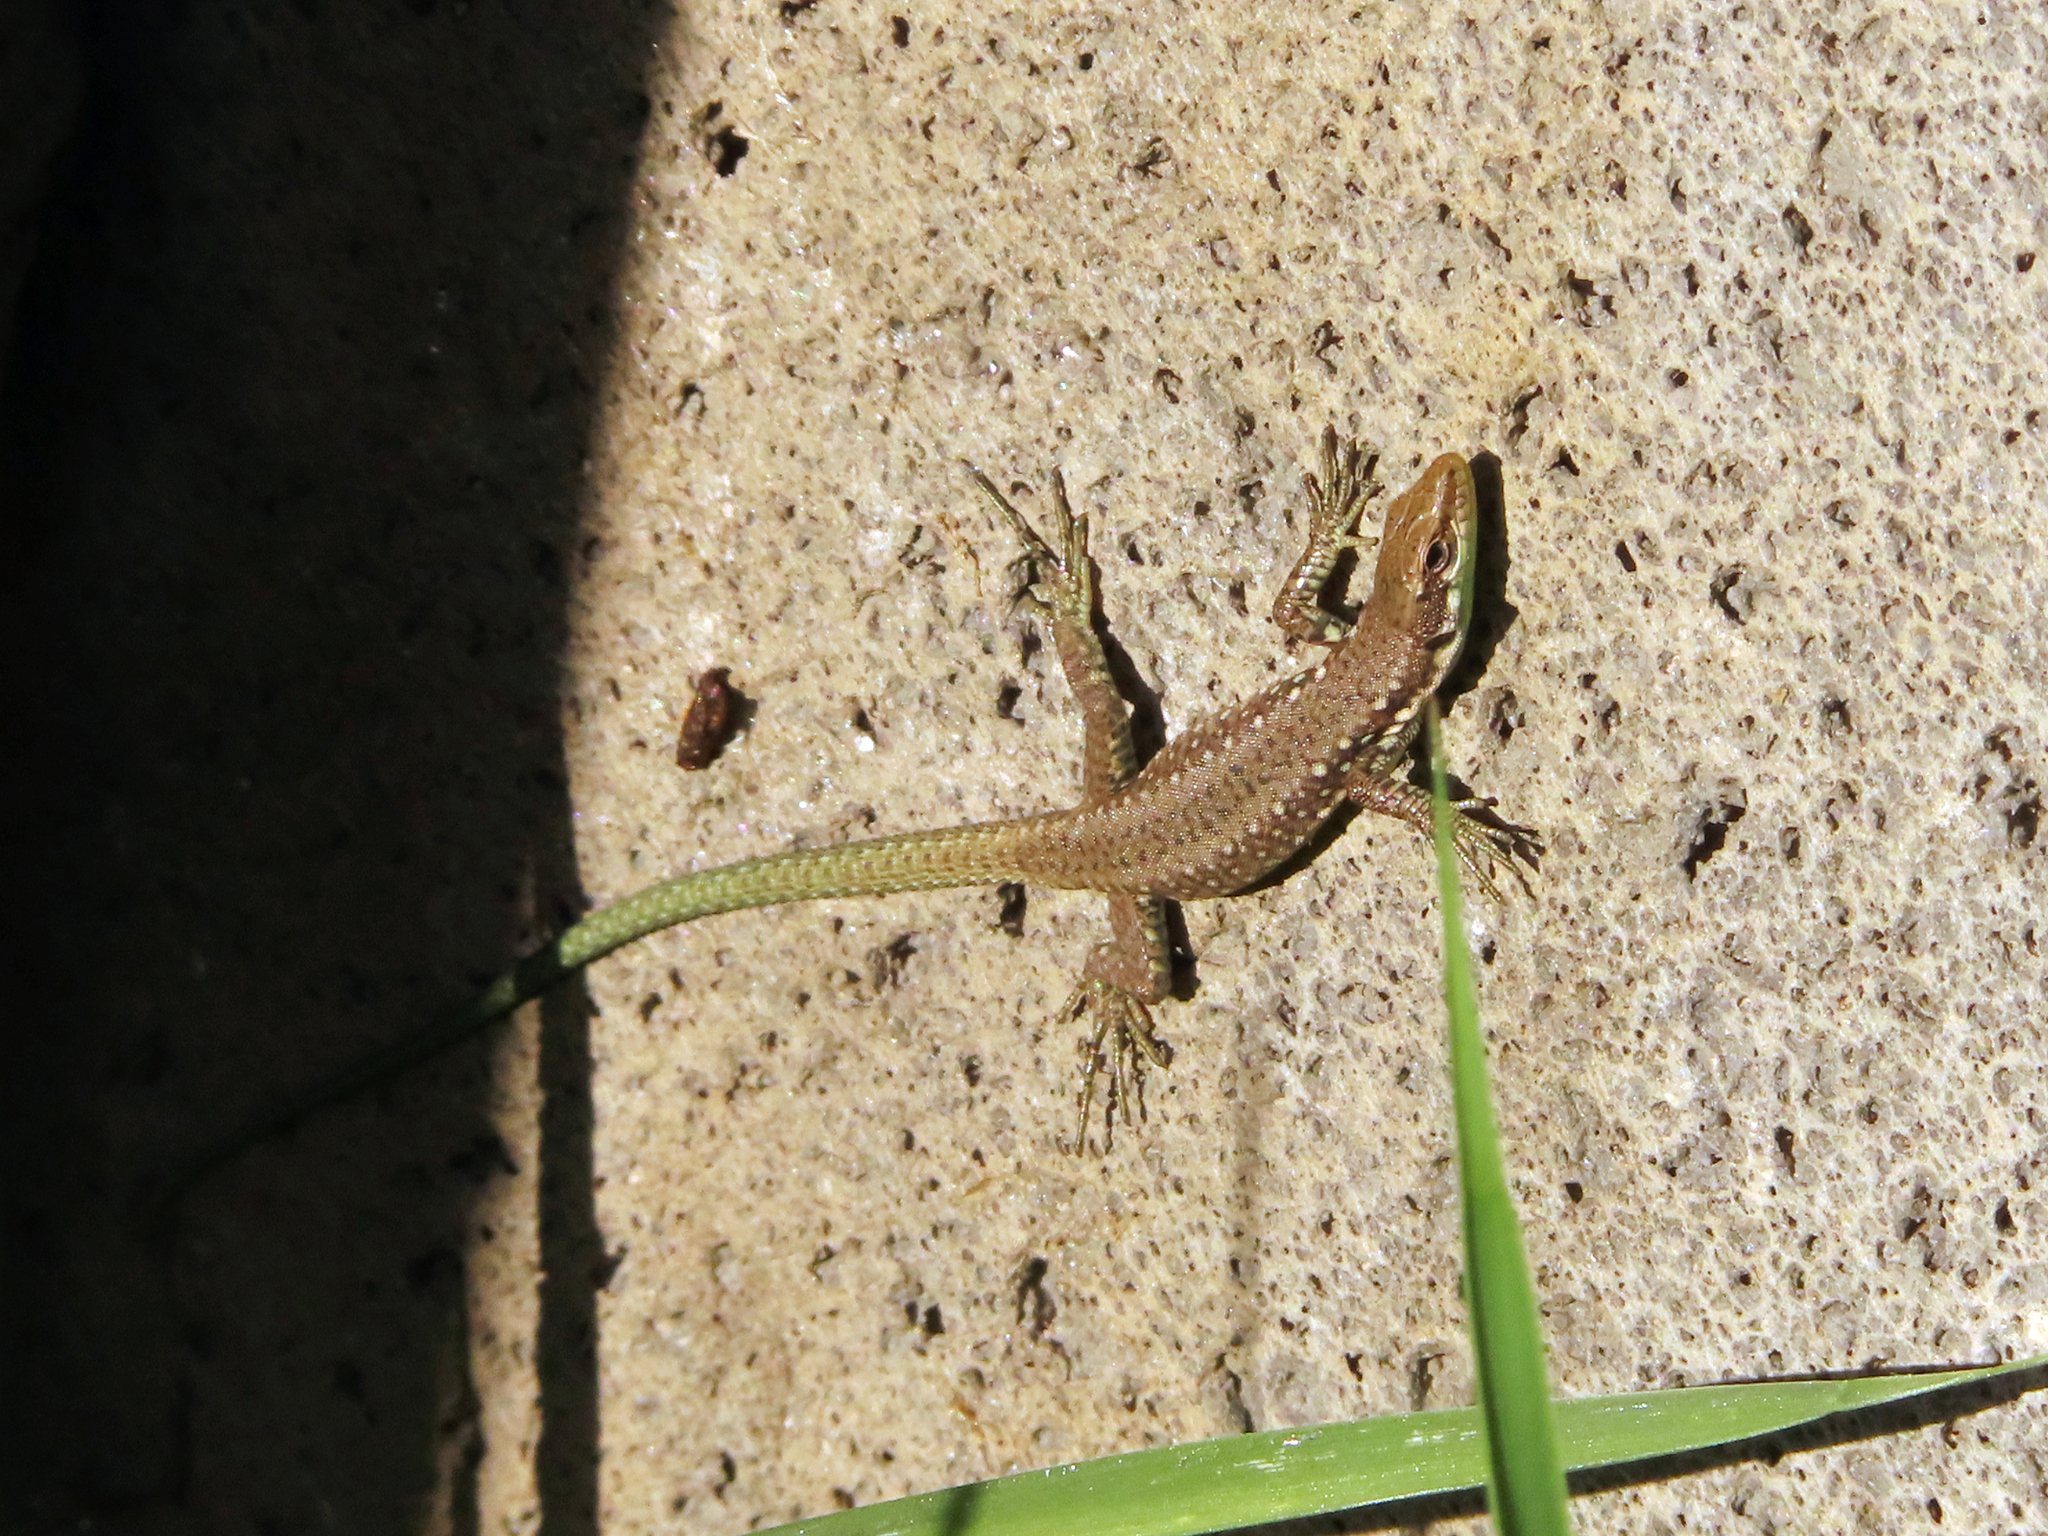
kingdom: Animalia
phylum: Chordata
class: Squamata
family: Lacertidae
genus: Darevskia
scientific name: Darevskia raddei
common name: Radde's lizard
